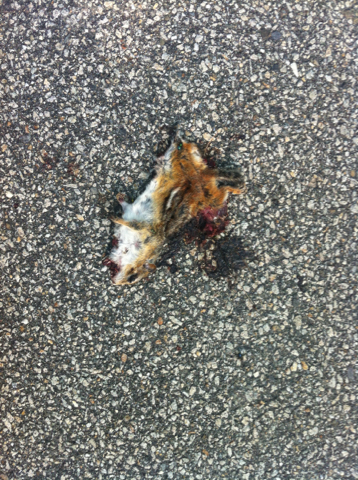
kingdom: Animalia
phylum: Chordata
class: Mammalia
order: Rodentia
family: Sciuridae
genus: Tamias
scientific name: Tamias striatus
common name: Eastern chipmunk
